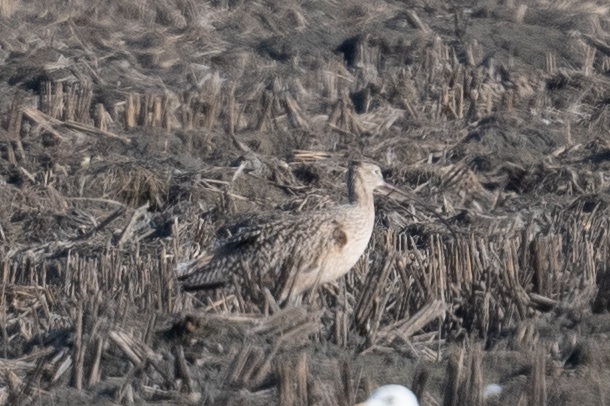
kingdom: Animalia
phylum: Chordata
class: Aves
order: Charadriiformes
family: Scolopacidae
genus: Numenius
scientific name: Numenius americanus
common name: Long-billed curlew
